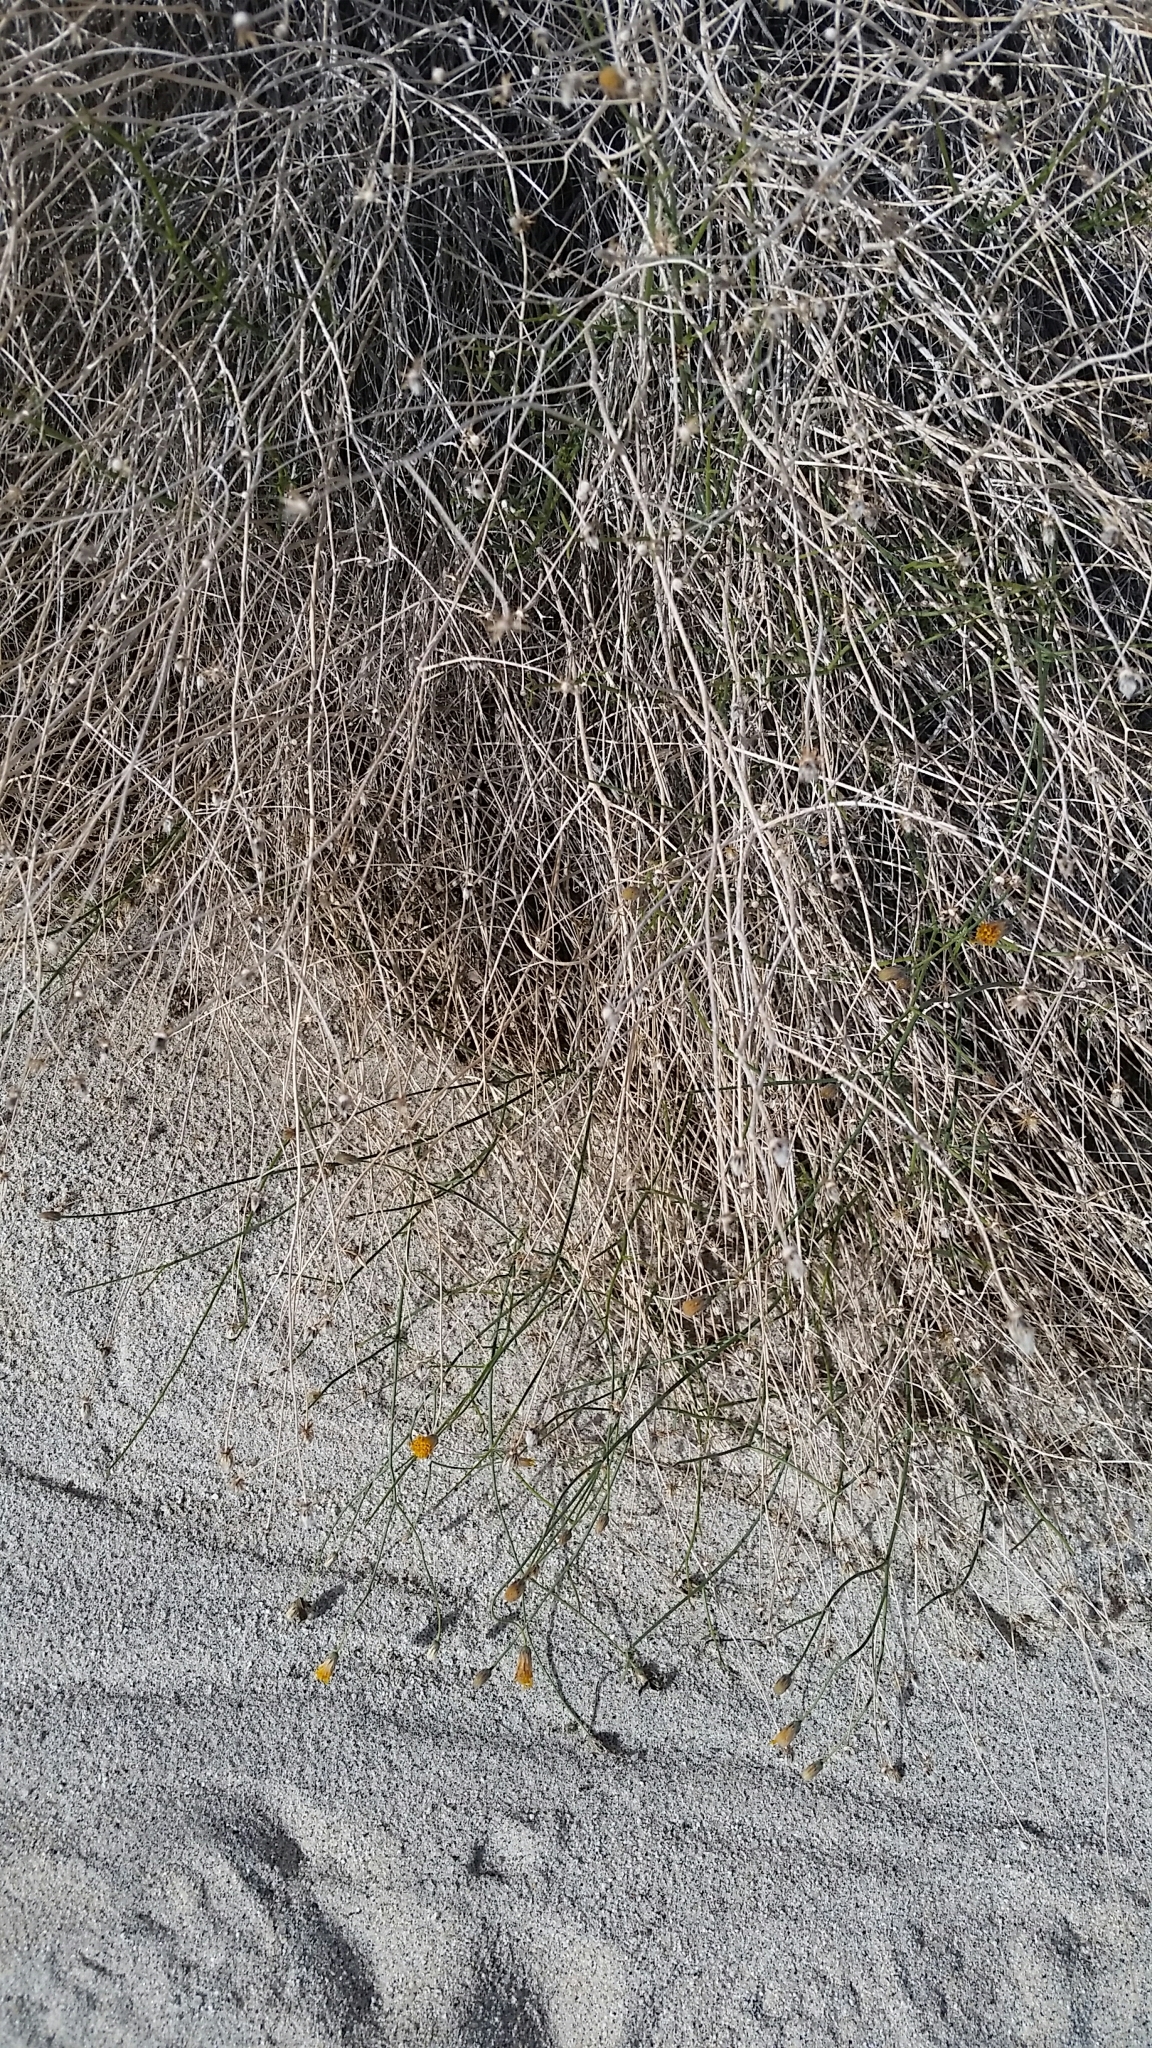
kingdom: Plantae
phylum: Tracheophyta
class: Magnoliopsida
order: Asterales
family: Asteraceae
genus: Bebbia
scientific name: Bebbia juncea
